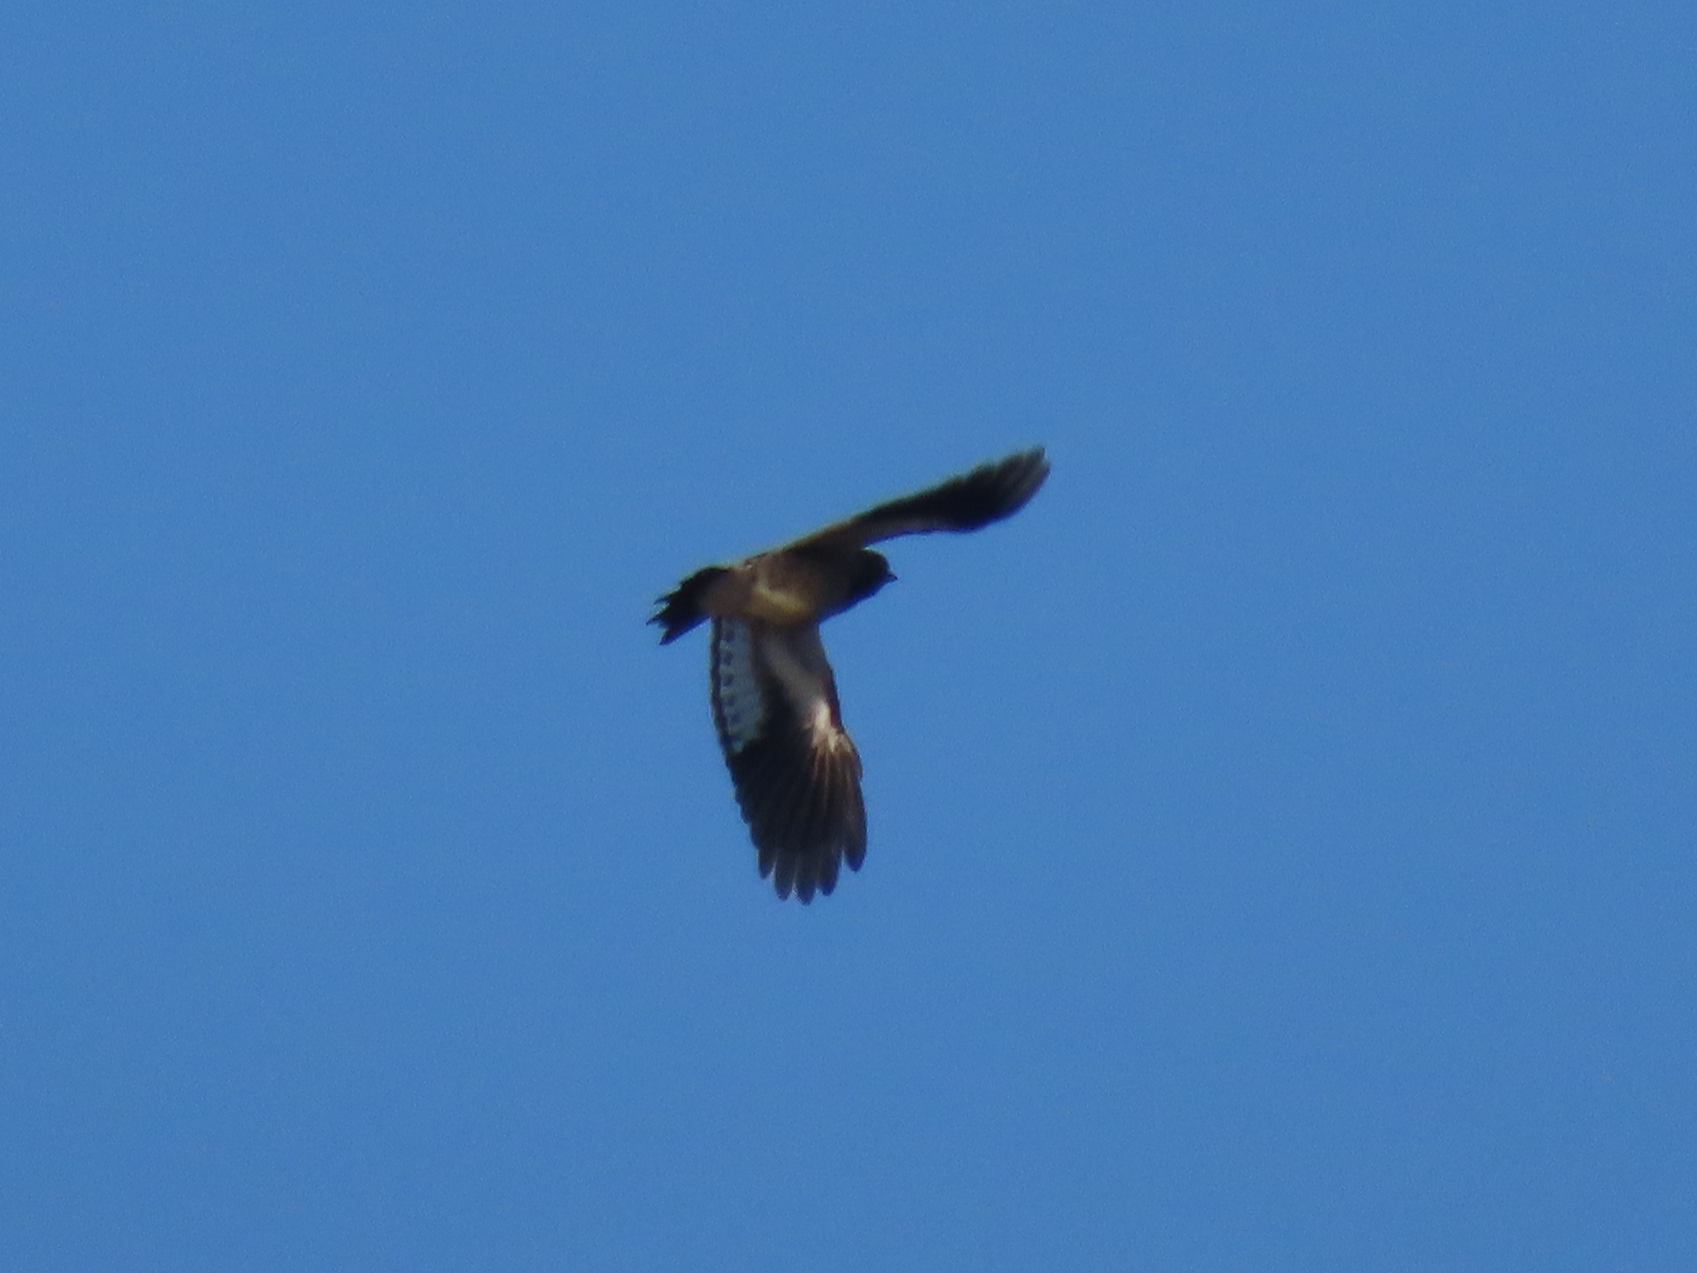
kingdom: Animalia
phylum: Chordata
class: Aves
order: Piciformes
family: Picidae
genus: Melanerpes
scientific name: Melanerpes erythrocephalus
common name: Red-headed woodpecker
